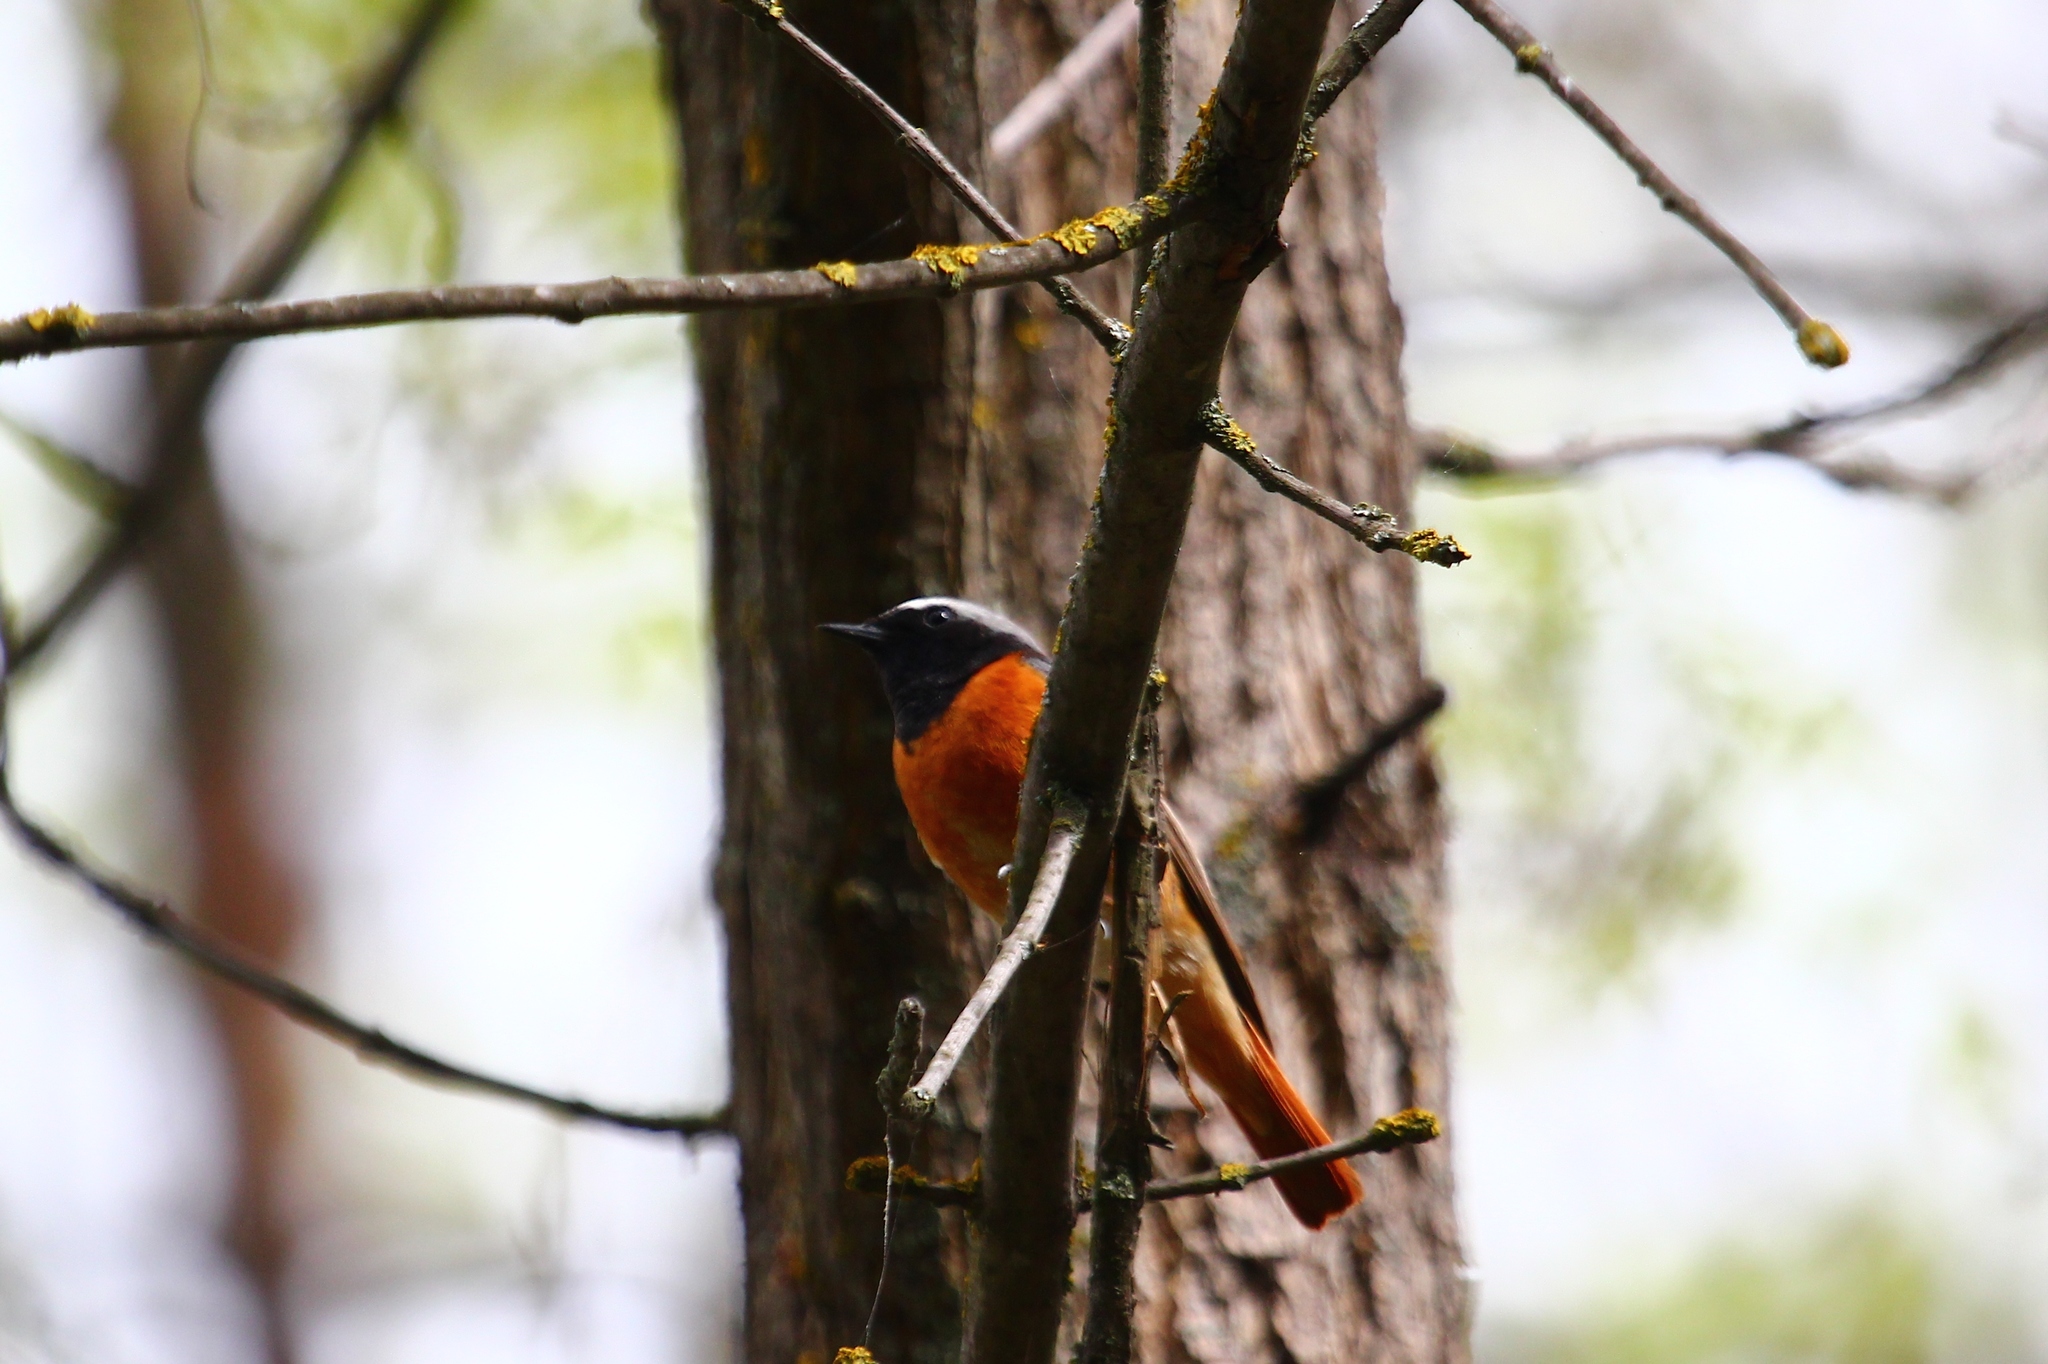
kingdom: Animalia
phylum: Chordata
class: Aves
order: Passeriformes
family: Muscicapidae
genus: Phoenicurus
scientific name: Phoenicurus phoenicurus
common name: Common redstart
